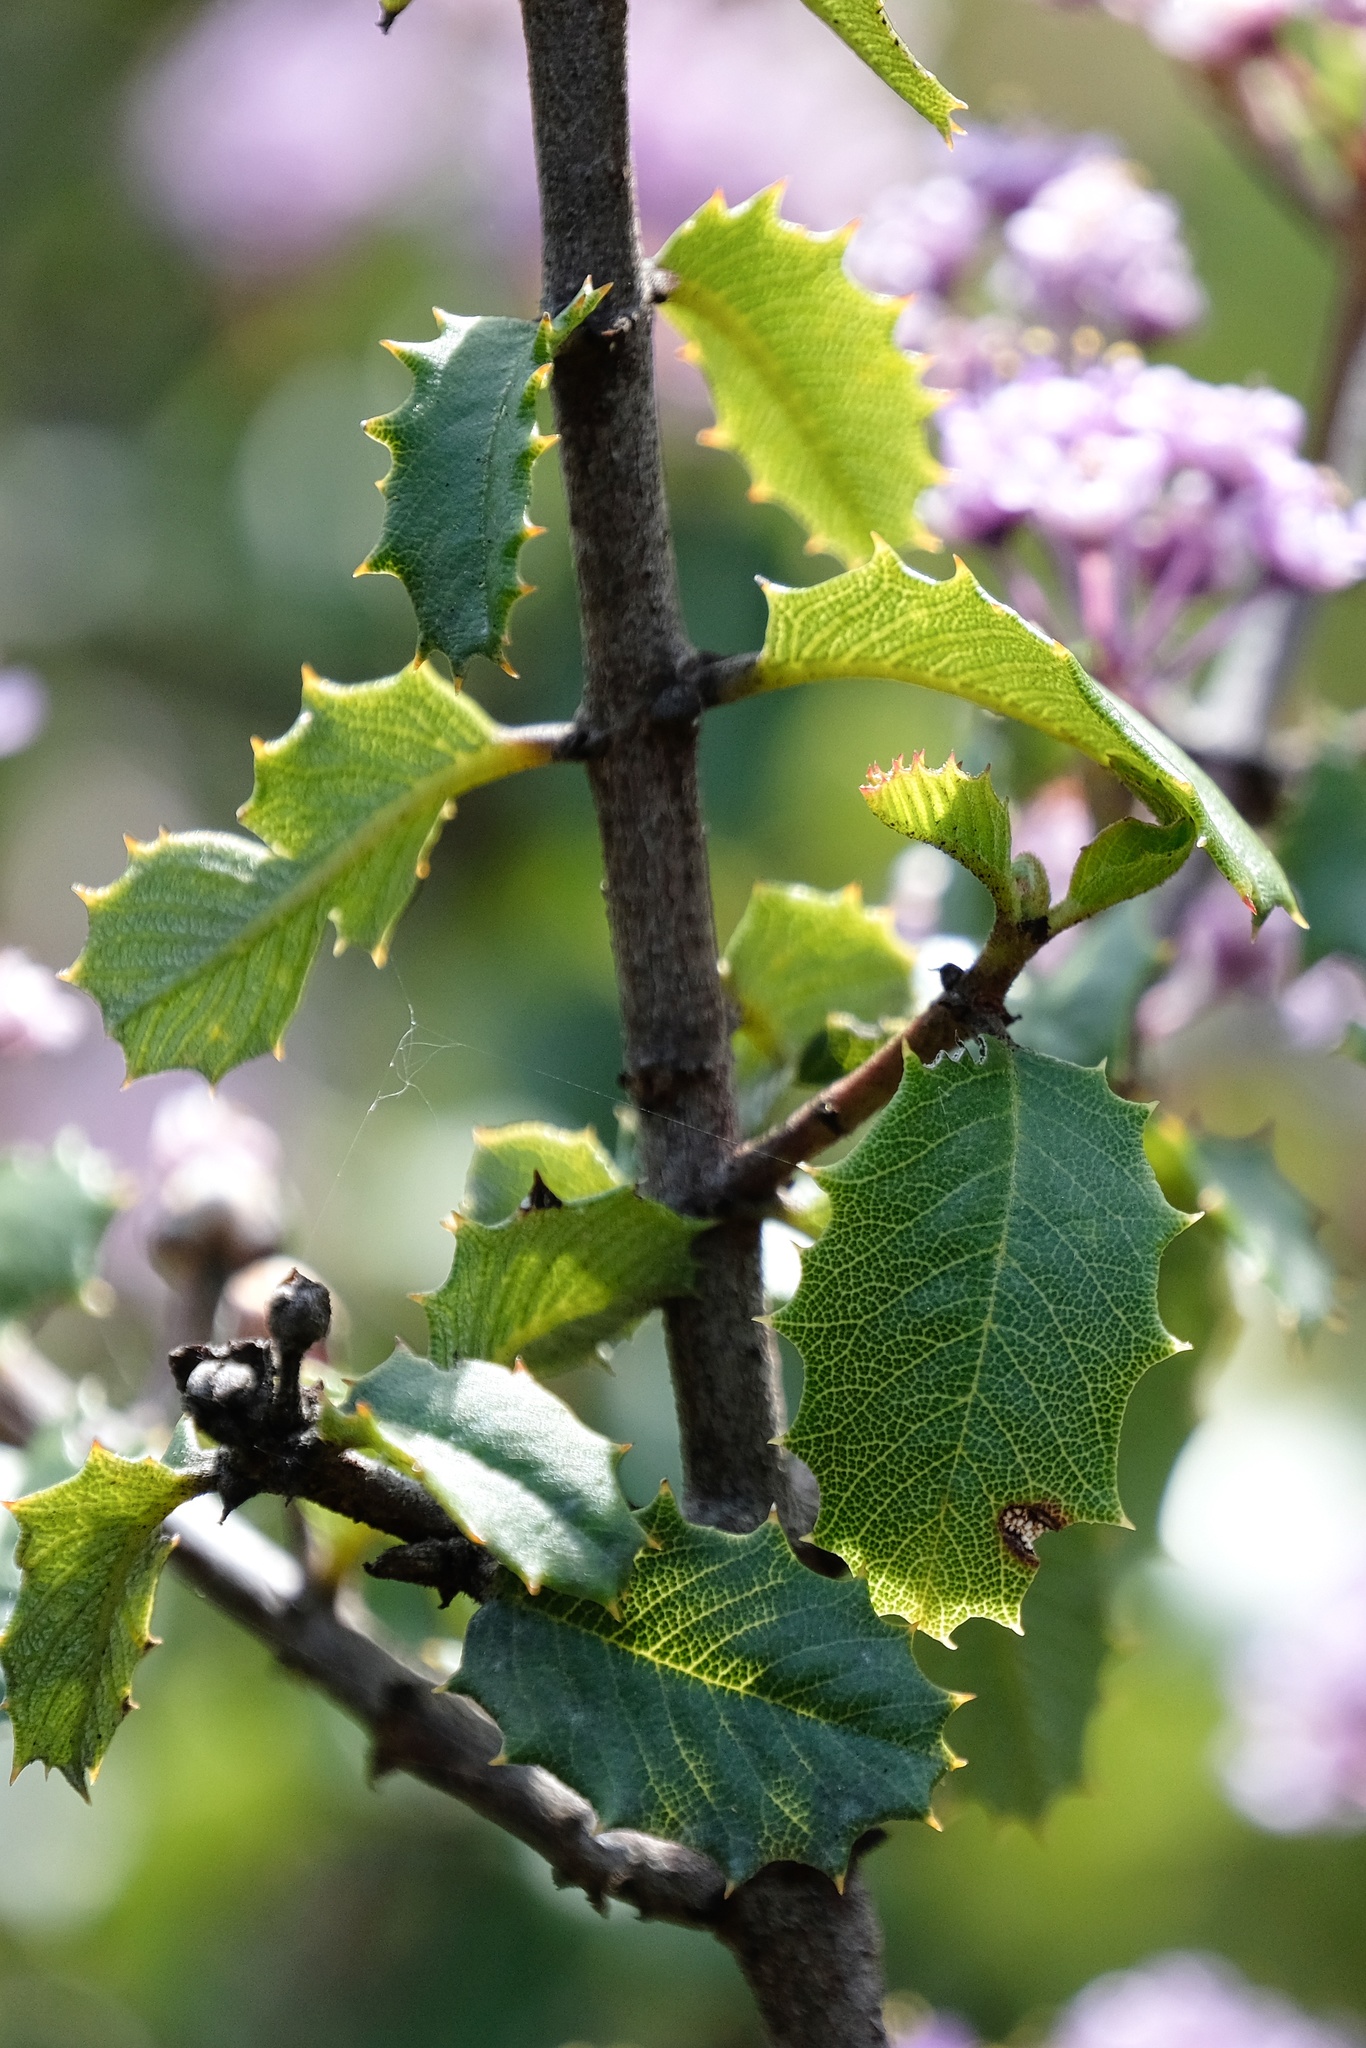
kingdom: Plantae
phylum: Tracheophyta
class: Magnoliopsida
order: Rosales
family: Rhamnaceae
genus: Ceanothus
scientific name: Ceanothus jepsonii
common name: Muskbrush
